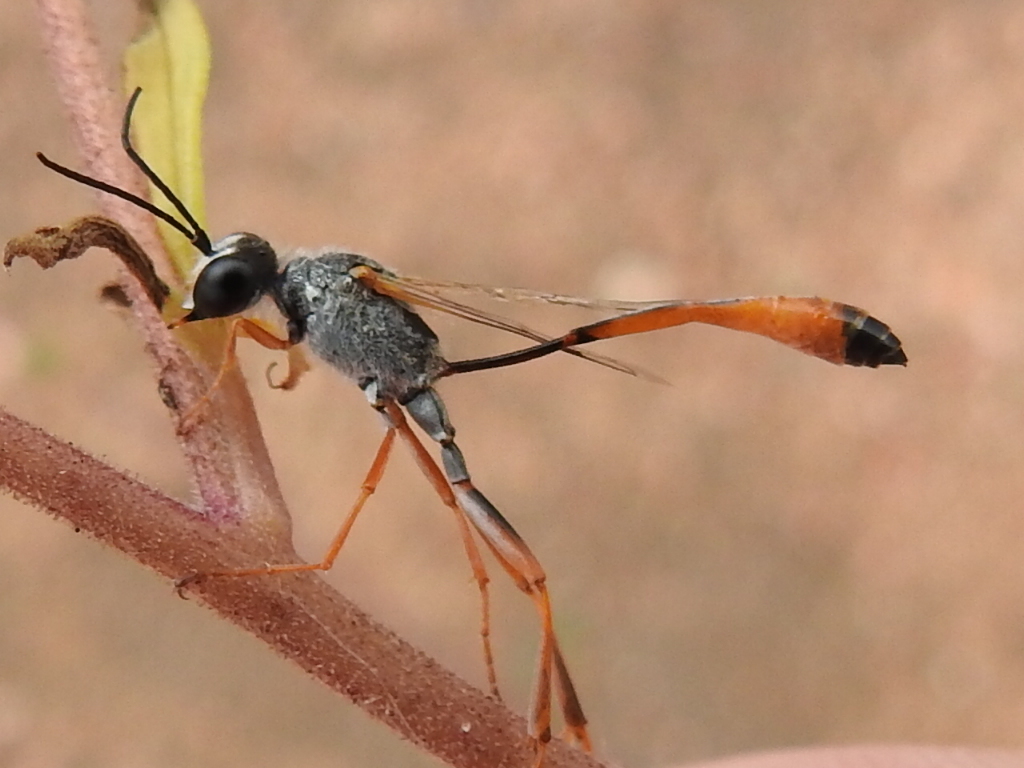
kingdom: Animalia
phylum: Arthropoda
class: Insecta
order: Hymenoptera
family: Sphecidae
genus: Ammophila
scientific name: Ammophila
